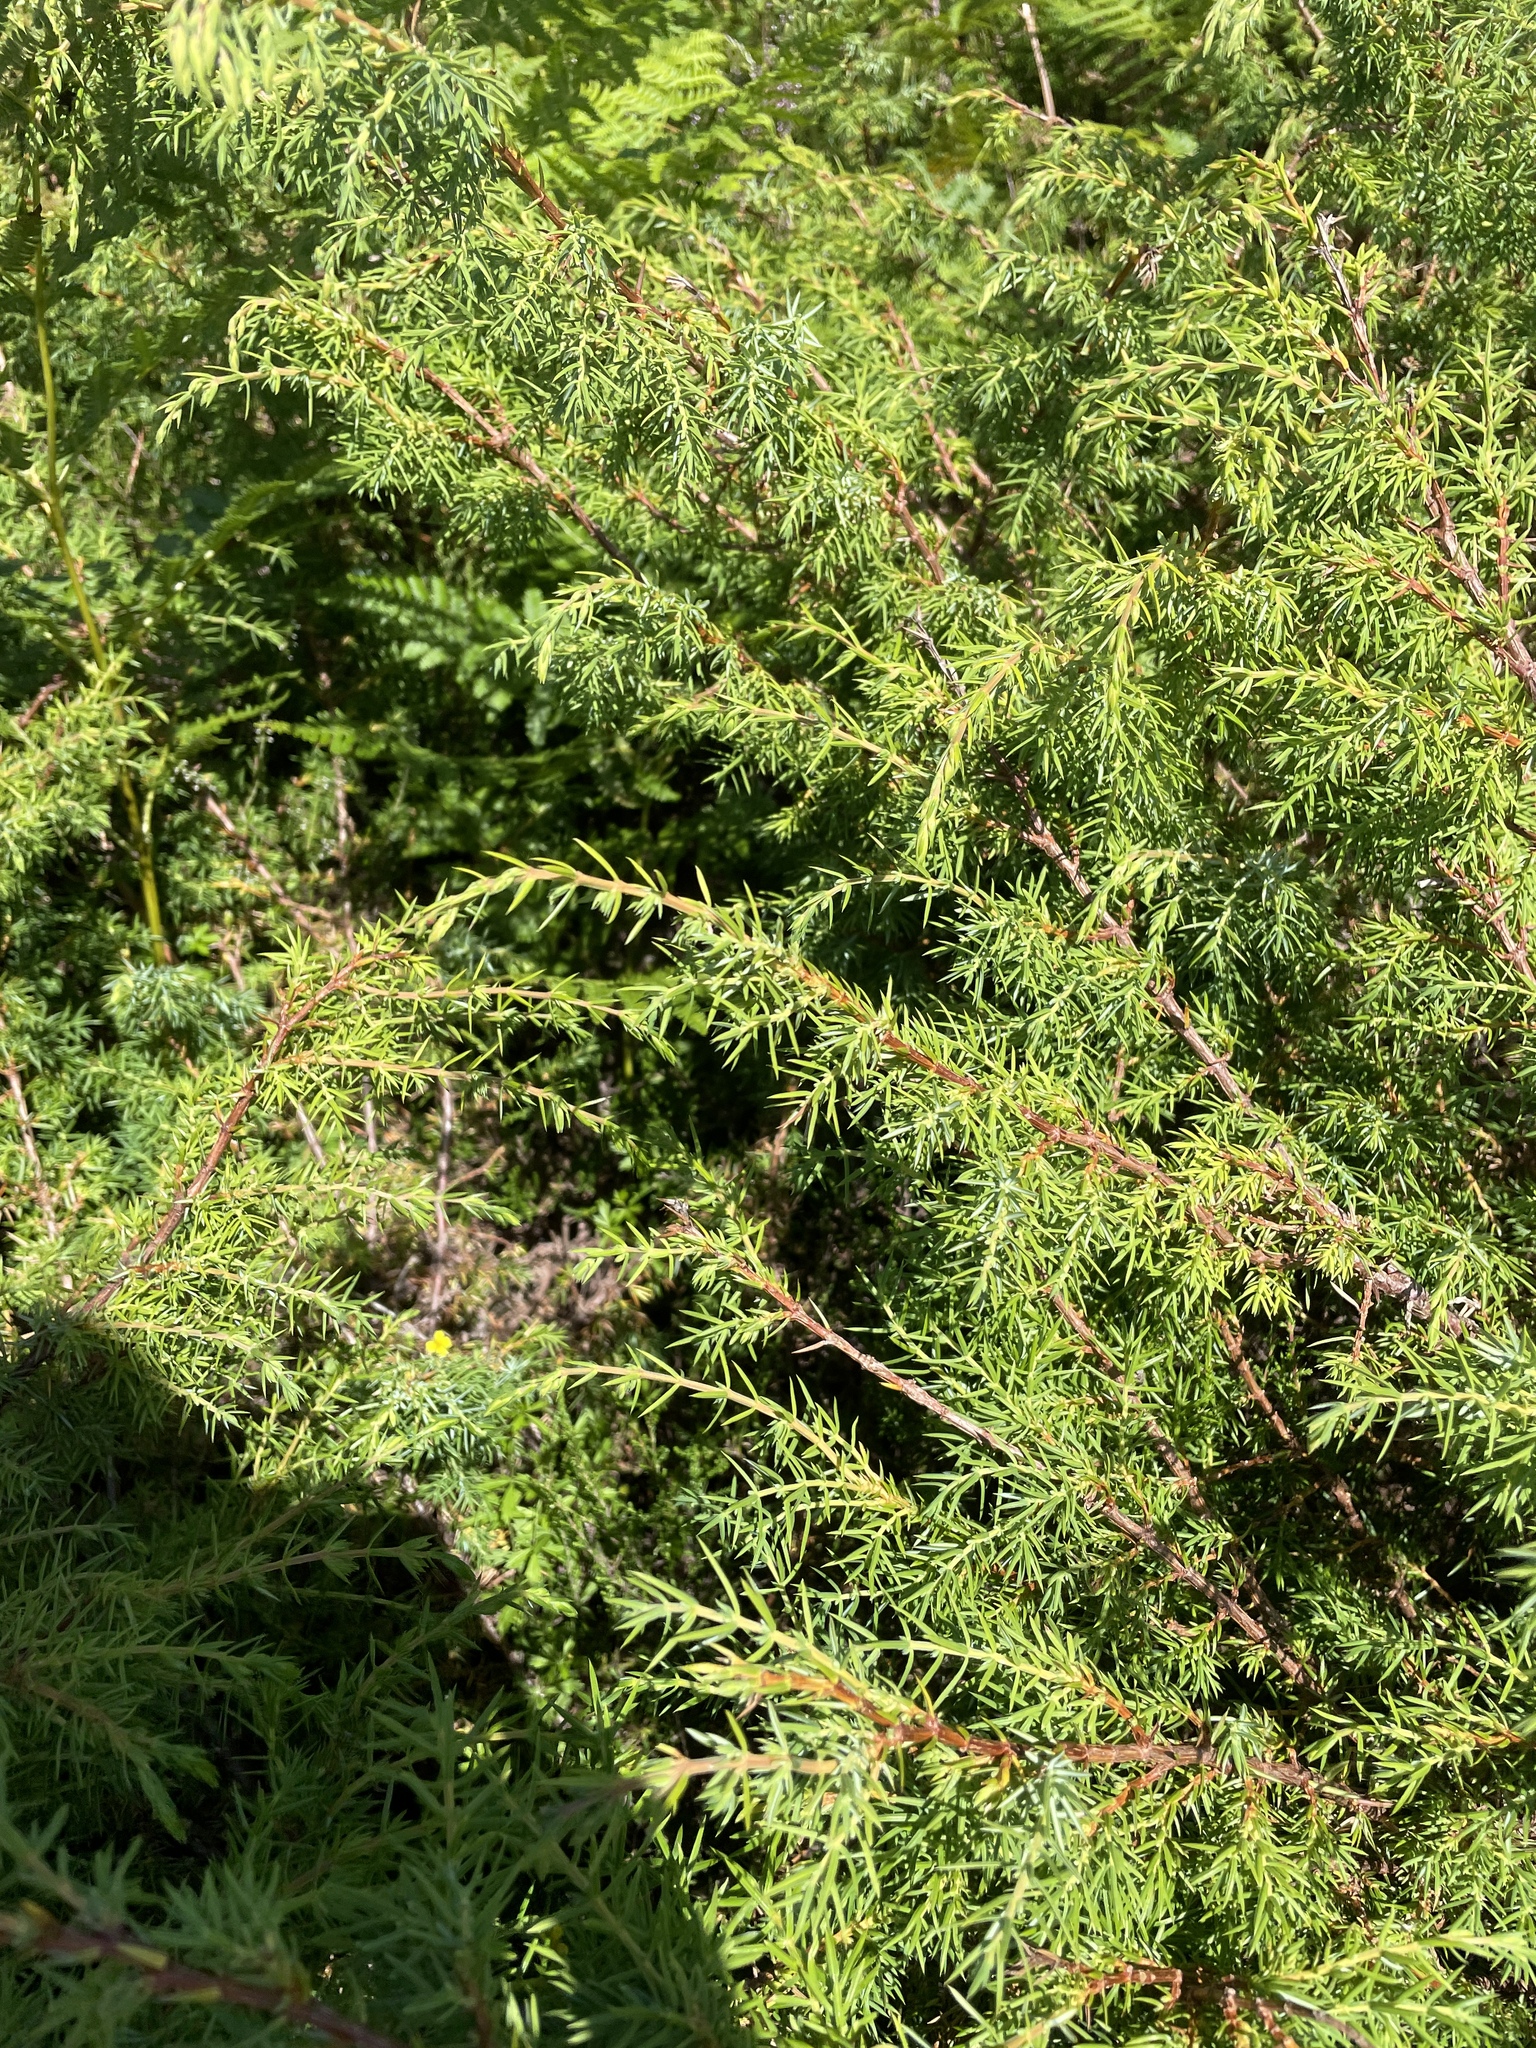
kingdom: Plantae
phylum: Tracheophyta
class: Pinopsida
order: Pinales
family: Cupressaceae
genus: Juniperus
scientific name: Juniperus communis
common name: Common juniper
